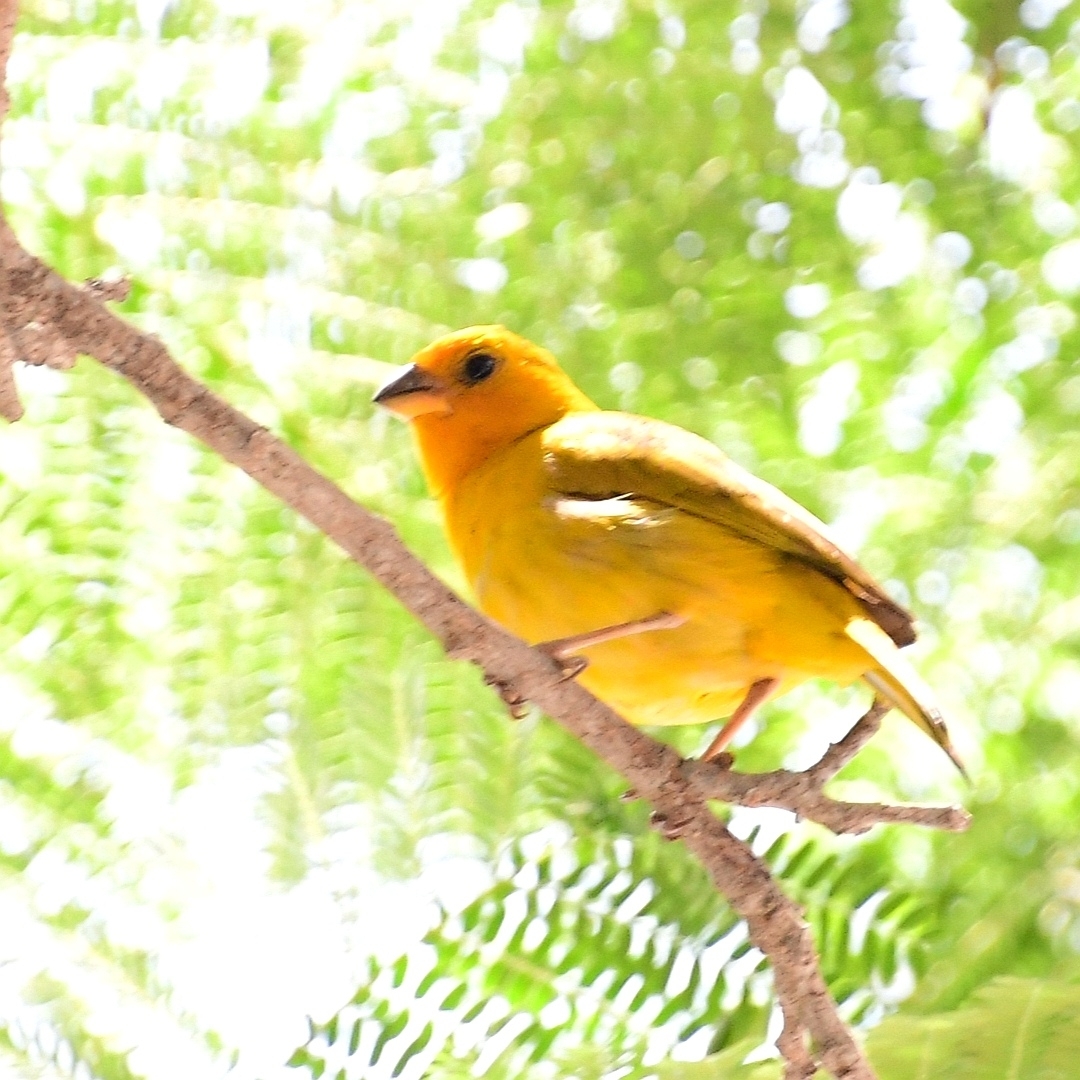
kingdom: Animalia
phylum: Chordata
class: Aves
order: Passeriformes
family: Thraupidae
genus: Sicalis
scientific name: Sicalis flaveola
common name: Saffron finch
